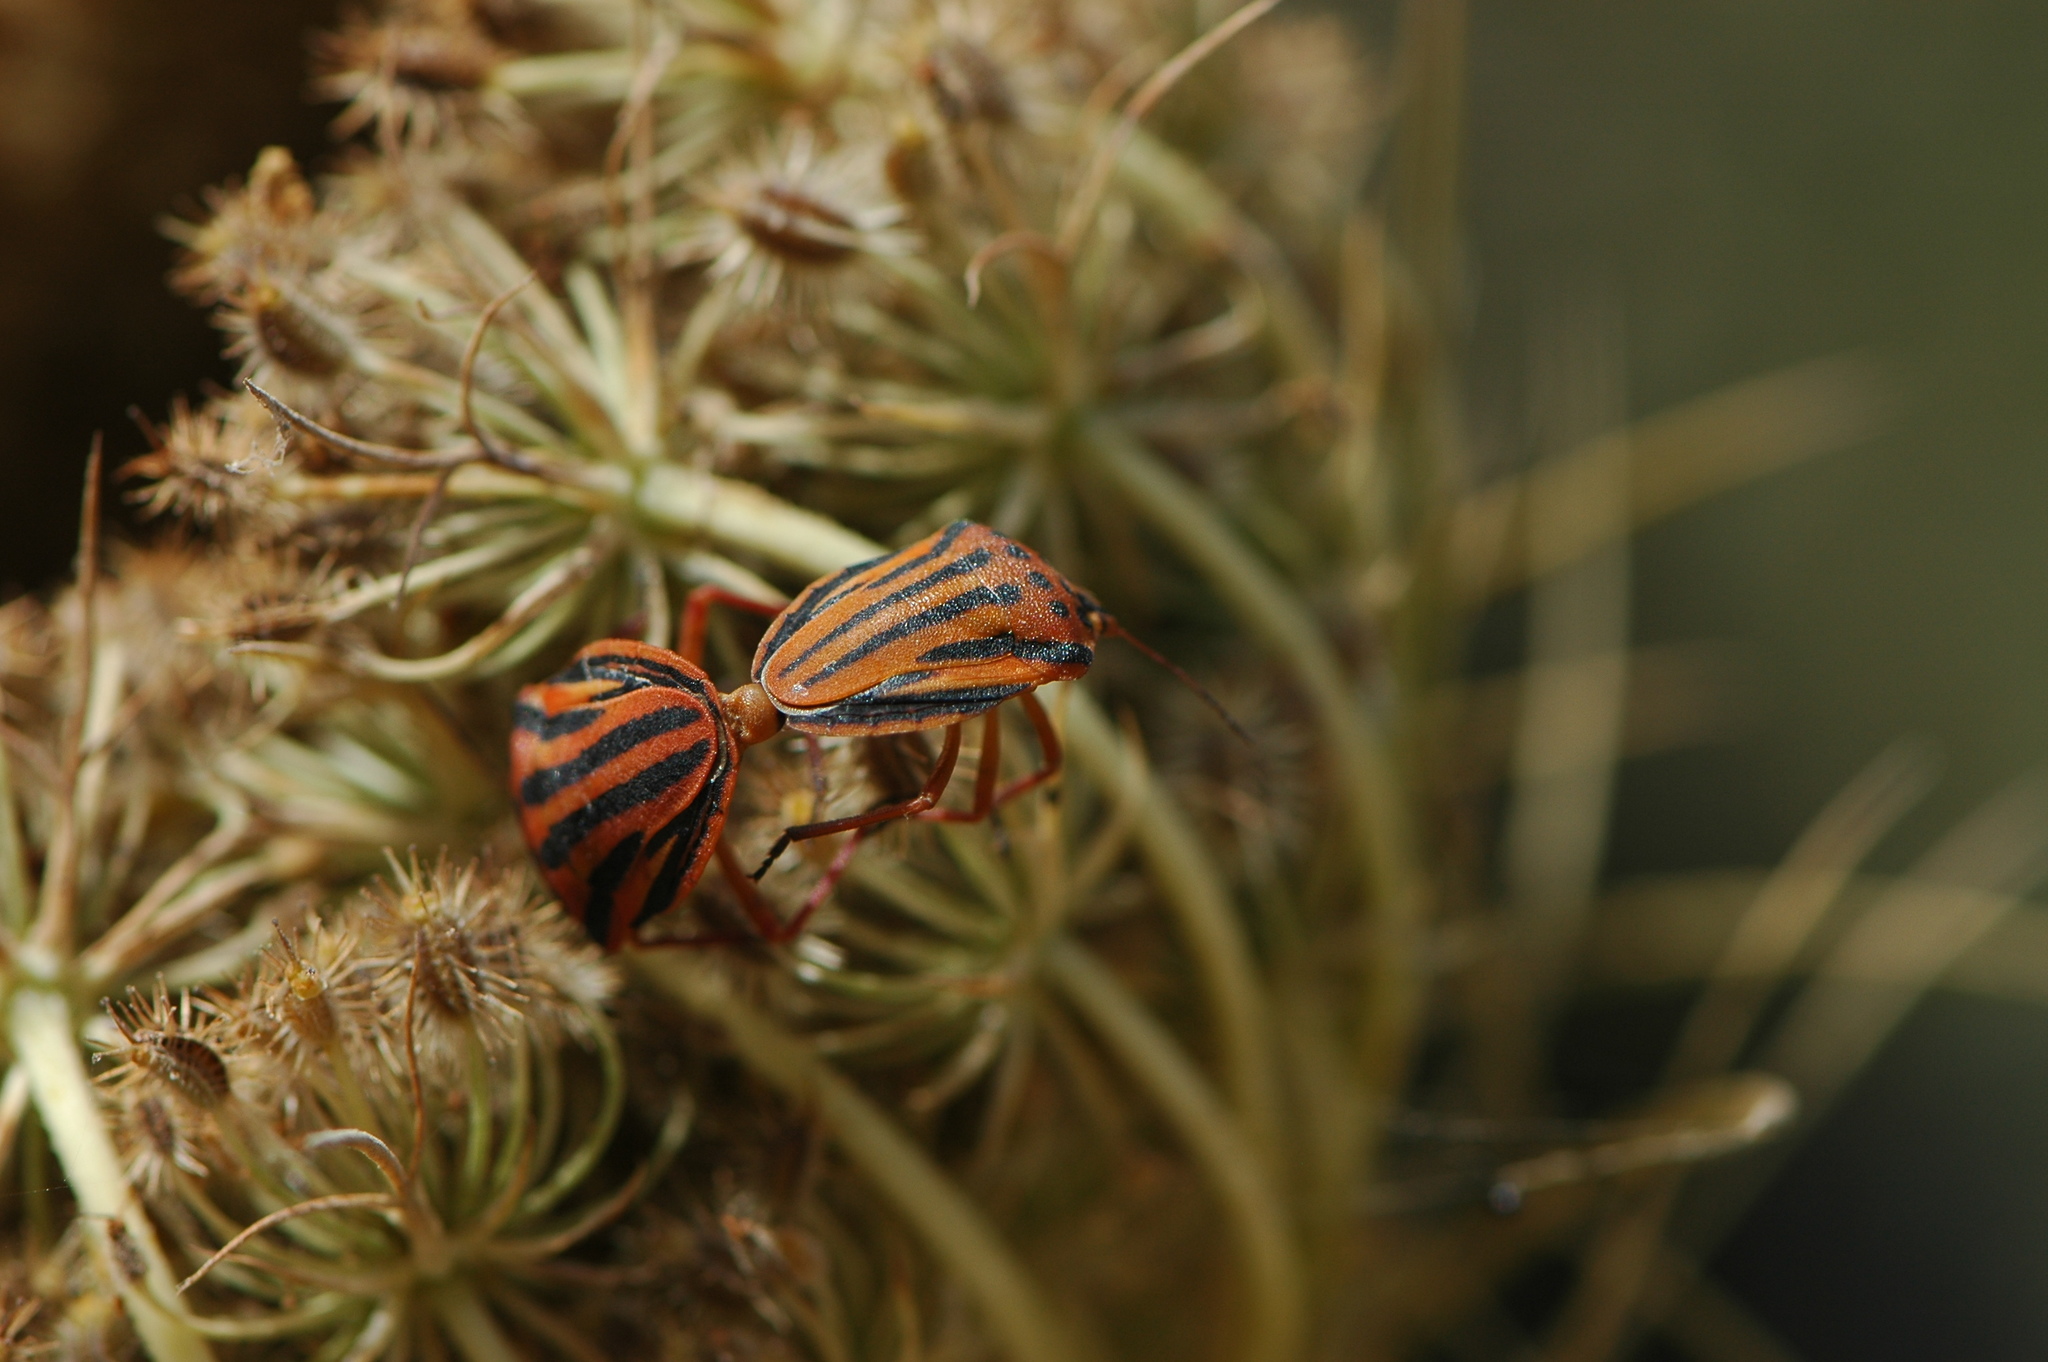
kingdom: Animalia
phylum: Arthropoda
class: Insecta
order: Hemiptera
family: Pentatomidae
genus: Graphosoma
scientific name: Graphosoma semipunctatum
